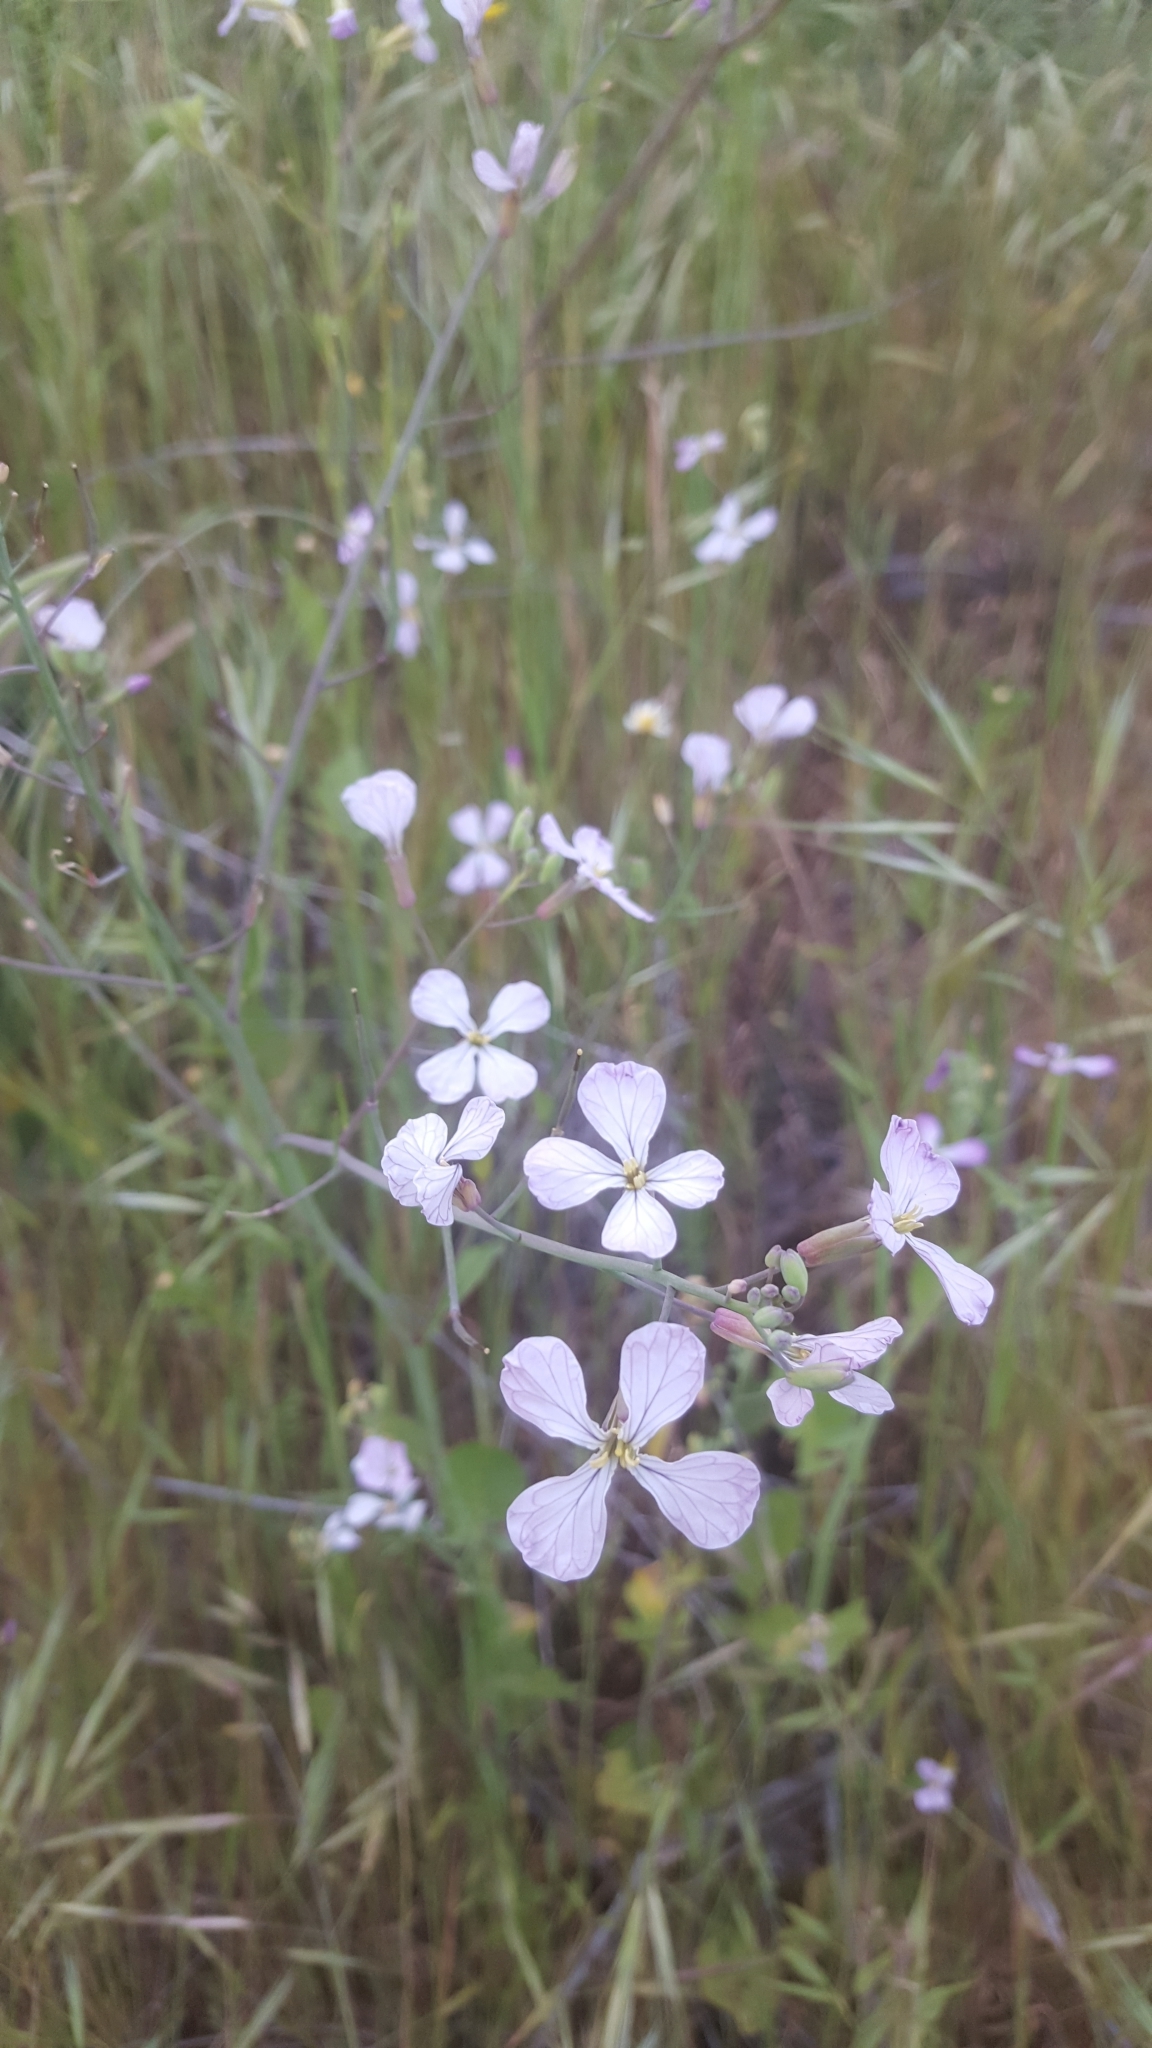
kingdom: Plantae
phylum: Tracheophyta
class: Magnoliopsida
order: Brassicales
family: Brassicaceae
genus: Raphanus
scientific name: Raphanus sativus
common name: Cultivated radish
